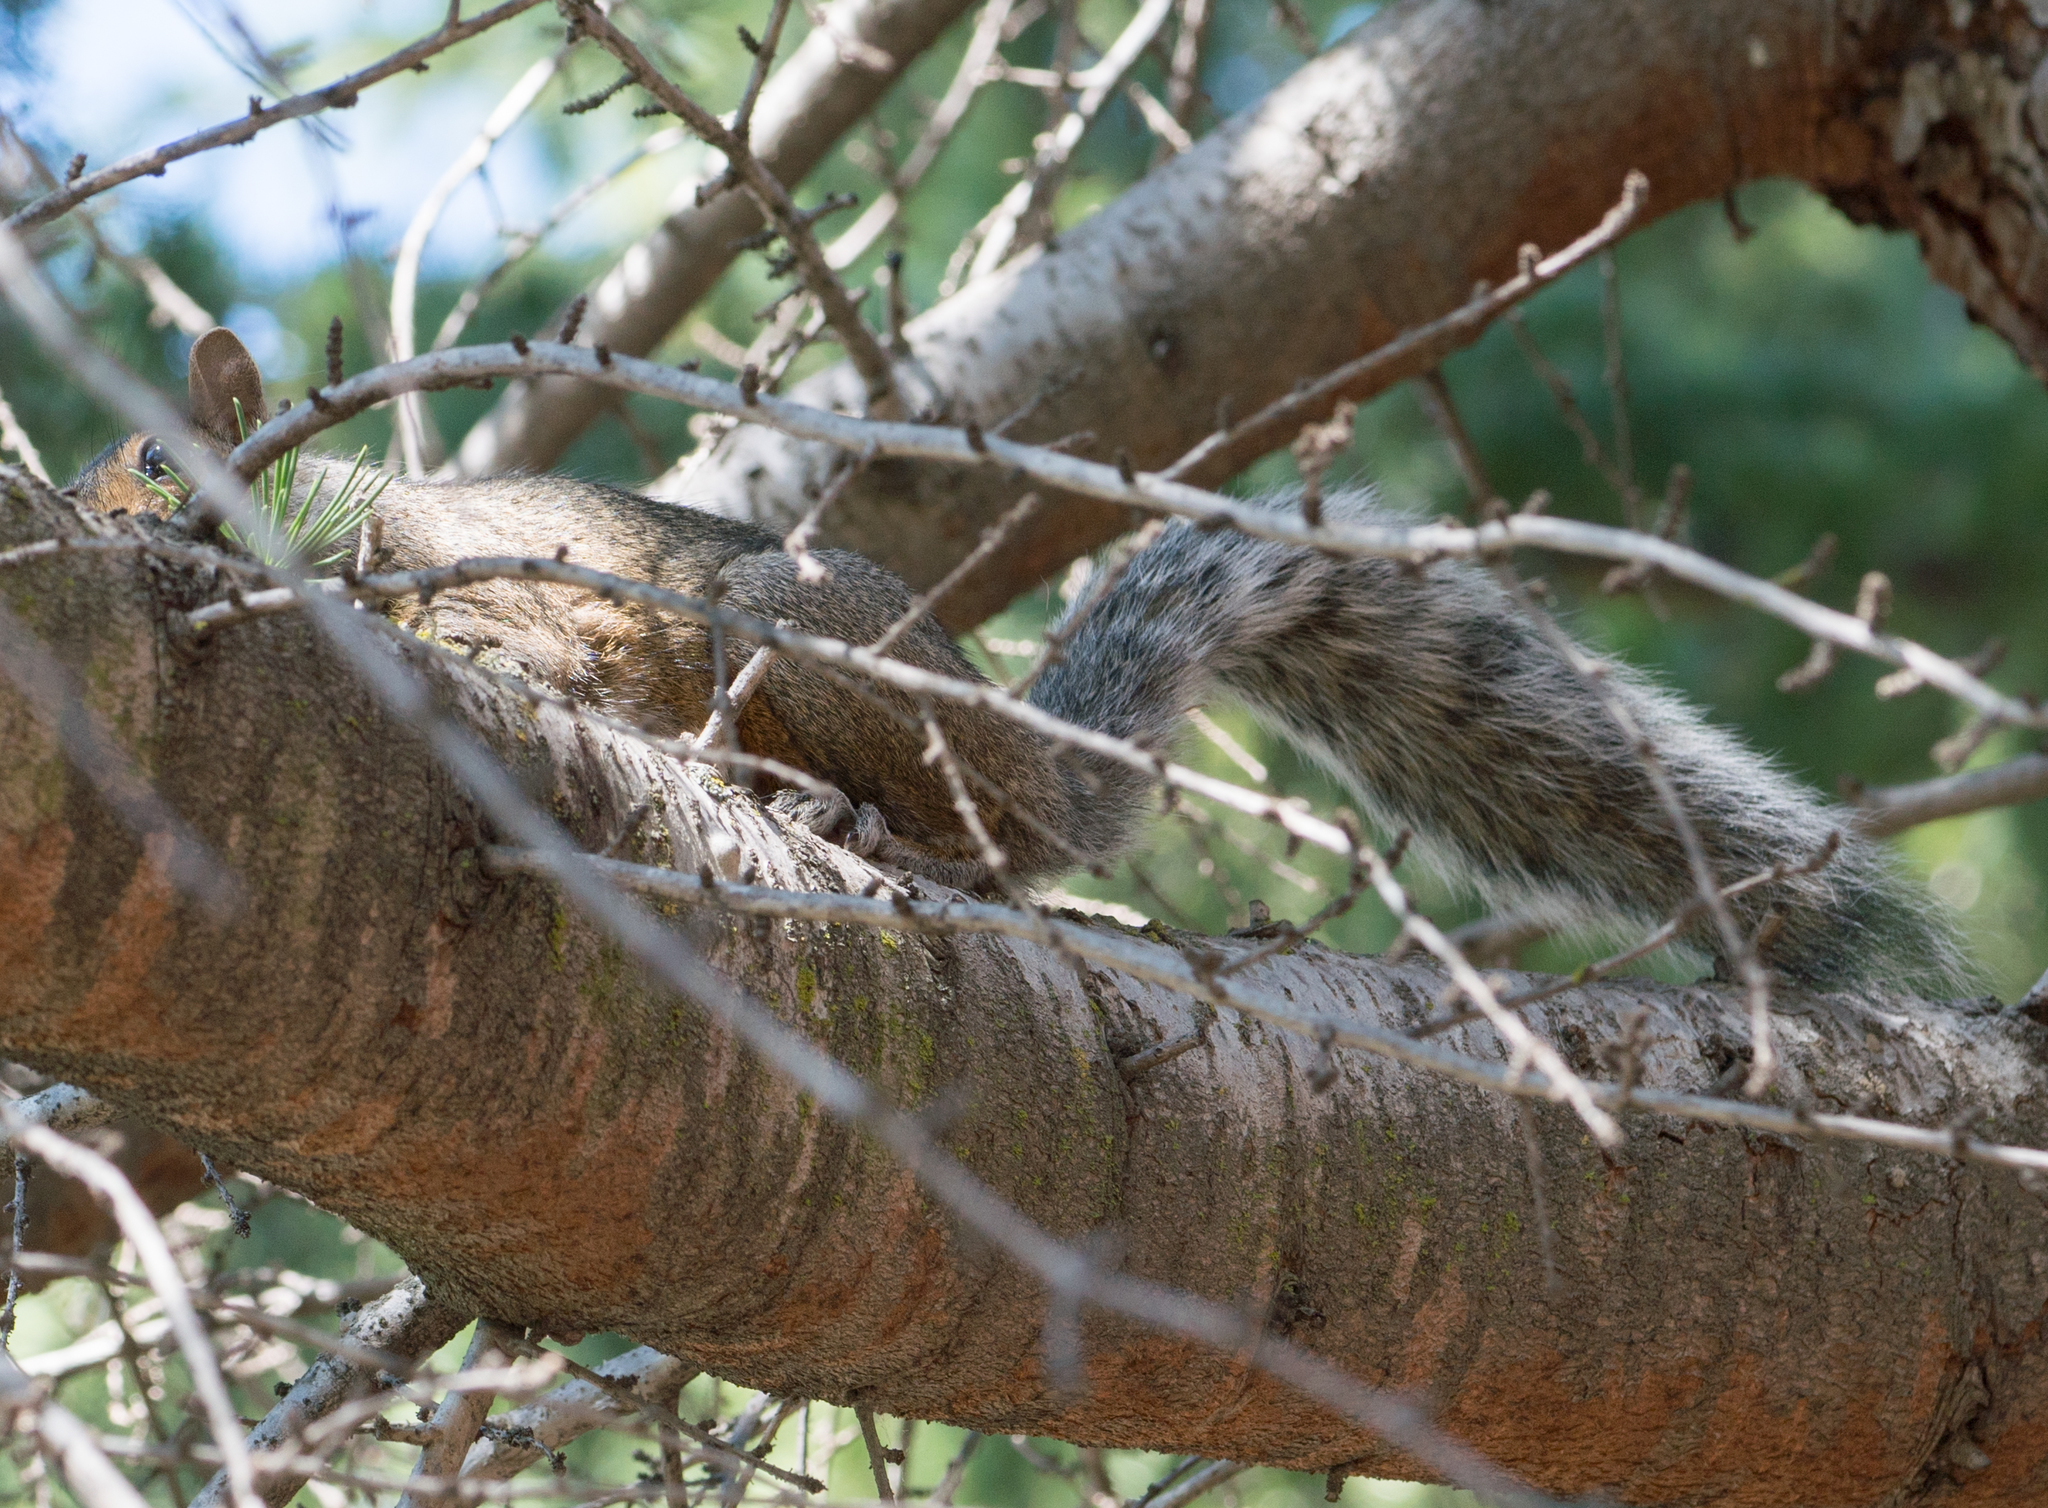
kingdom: Animalia
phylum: Chordata
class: Mammalia
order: Rodentia
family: Sciuridae
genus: Sciurus
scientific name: Sciurus carolinensis
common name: Eastern gray squirrel
